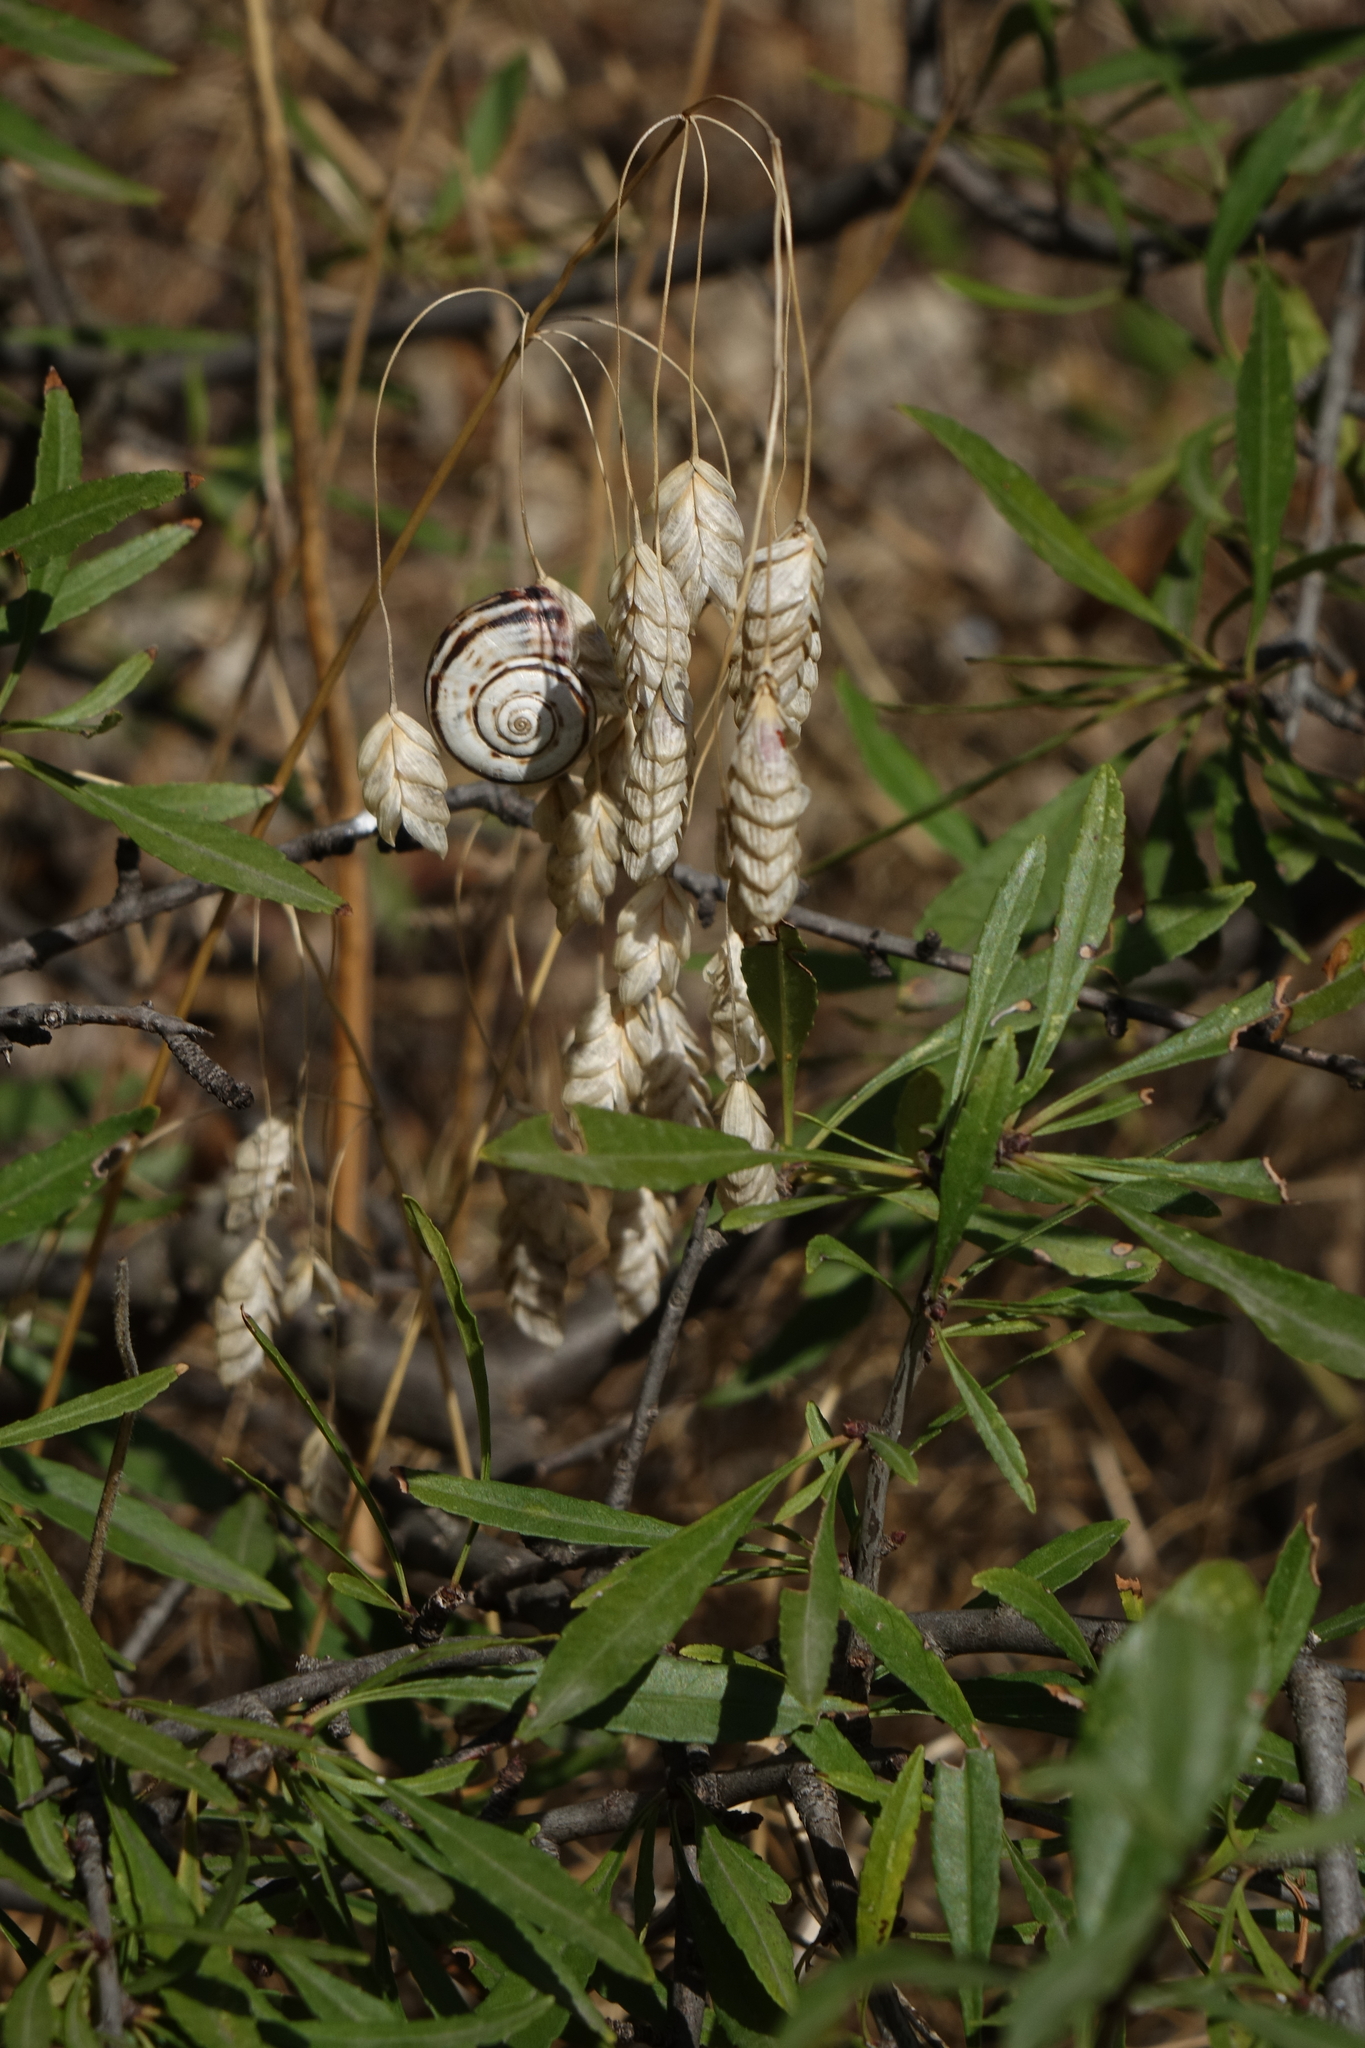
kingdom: Plantae
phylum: Tracheophyta
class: Liliopsida
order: Poales
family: Poaceae
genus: Bromus
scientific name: Bromus briziformis
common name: Rattlesnake brome
